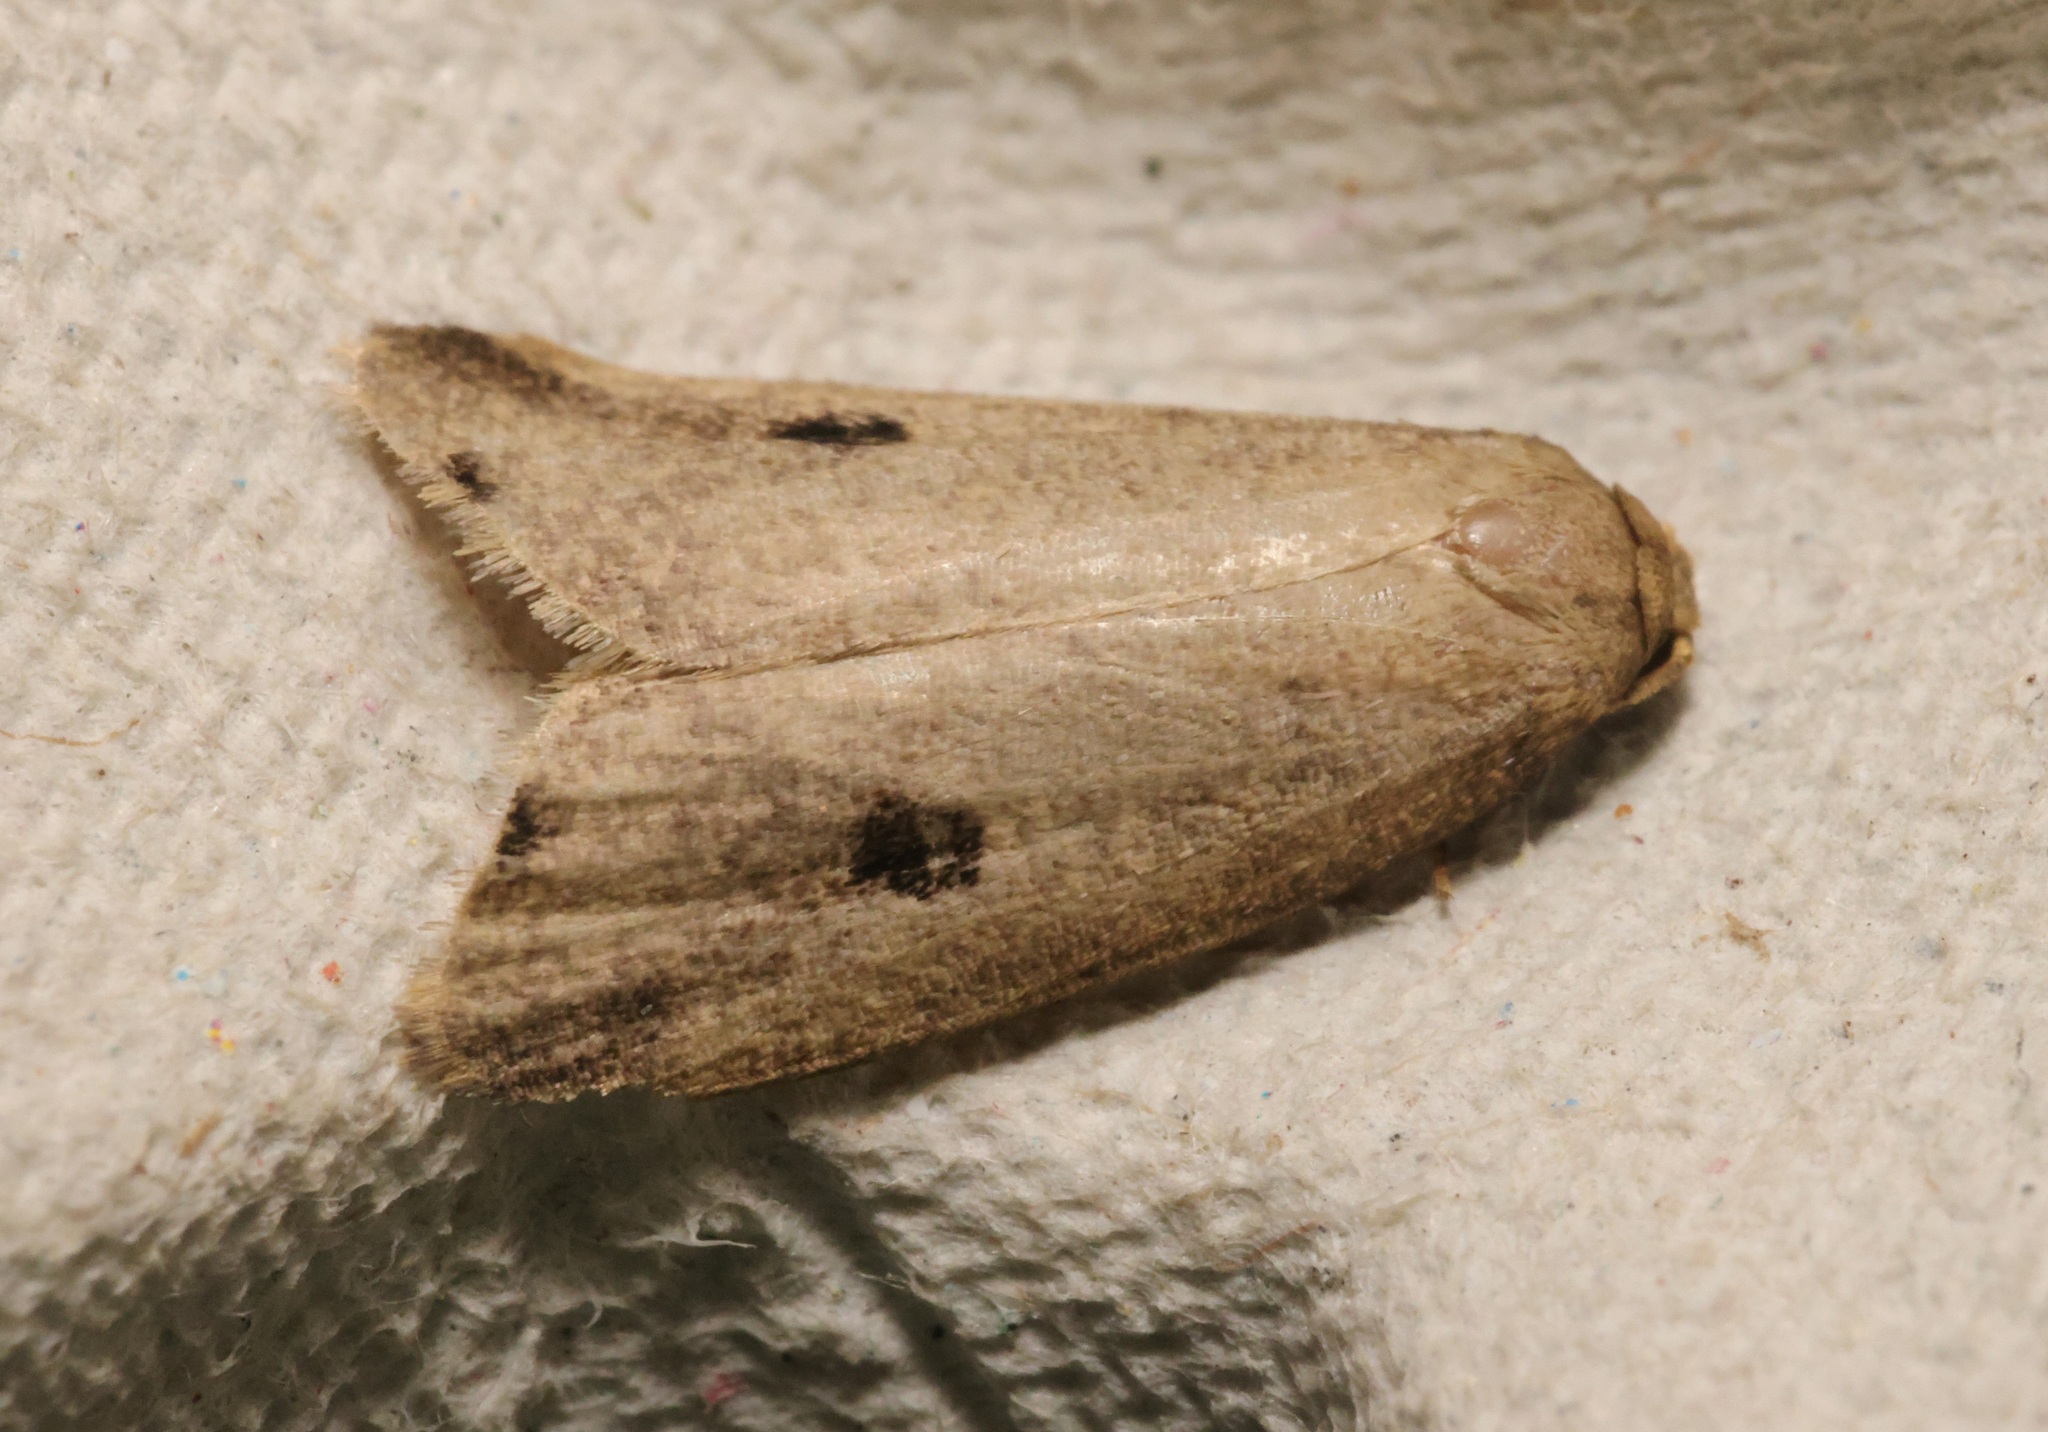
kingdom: Animalia
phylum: Arthropoda
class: Insecta
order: Lepidoptera
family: Erebidae
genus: Eugoa
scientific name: Eugoa cyclota
